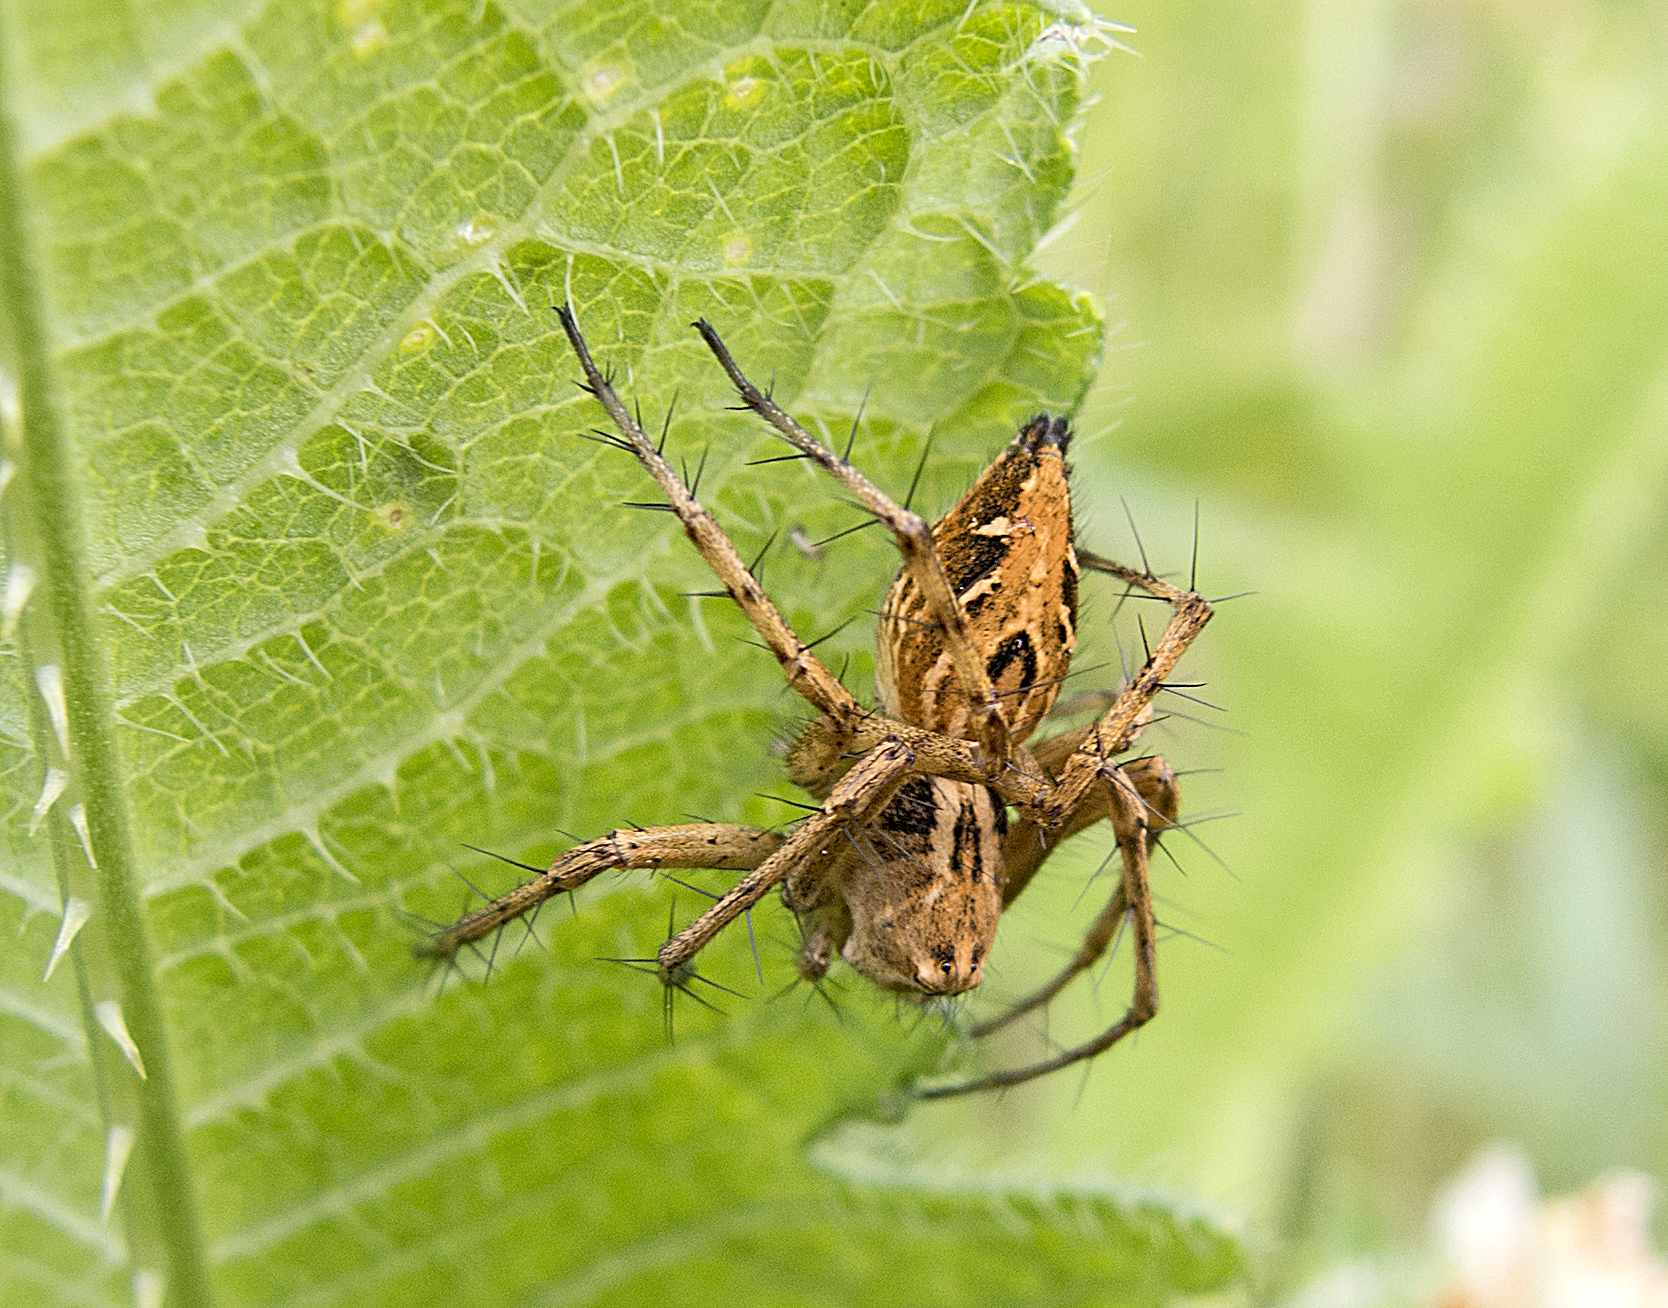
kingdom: Animalia
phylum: Arthropoda
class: Arachnida
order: Araneae
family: Oxyopidae
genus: Oxyopes
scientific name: Oxyopes heterophthalmus
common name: Lynx spider
